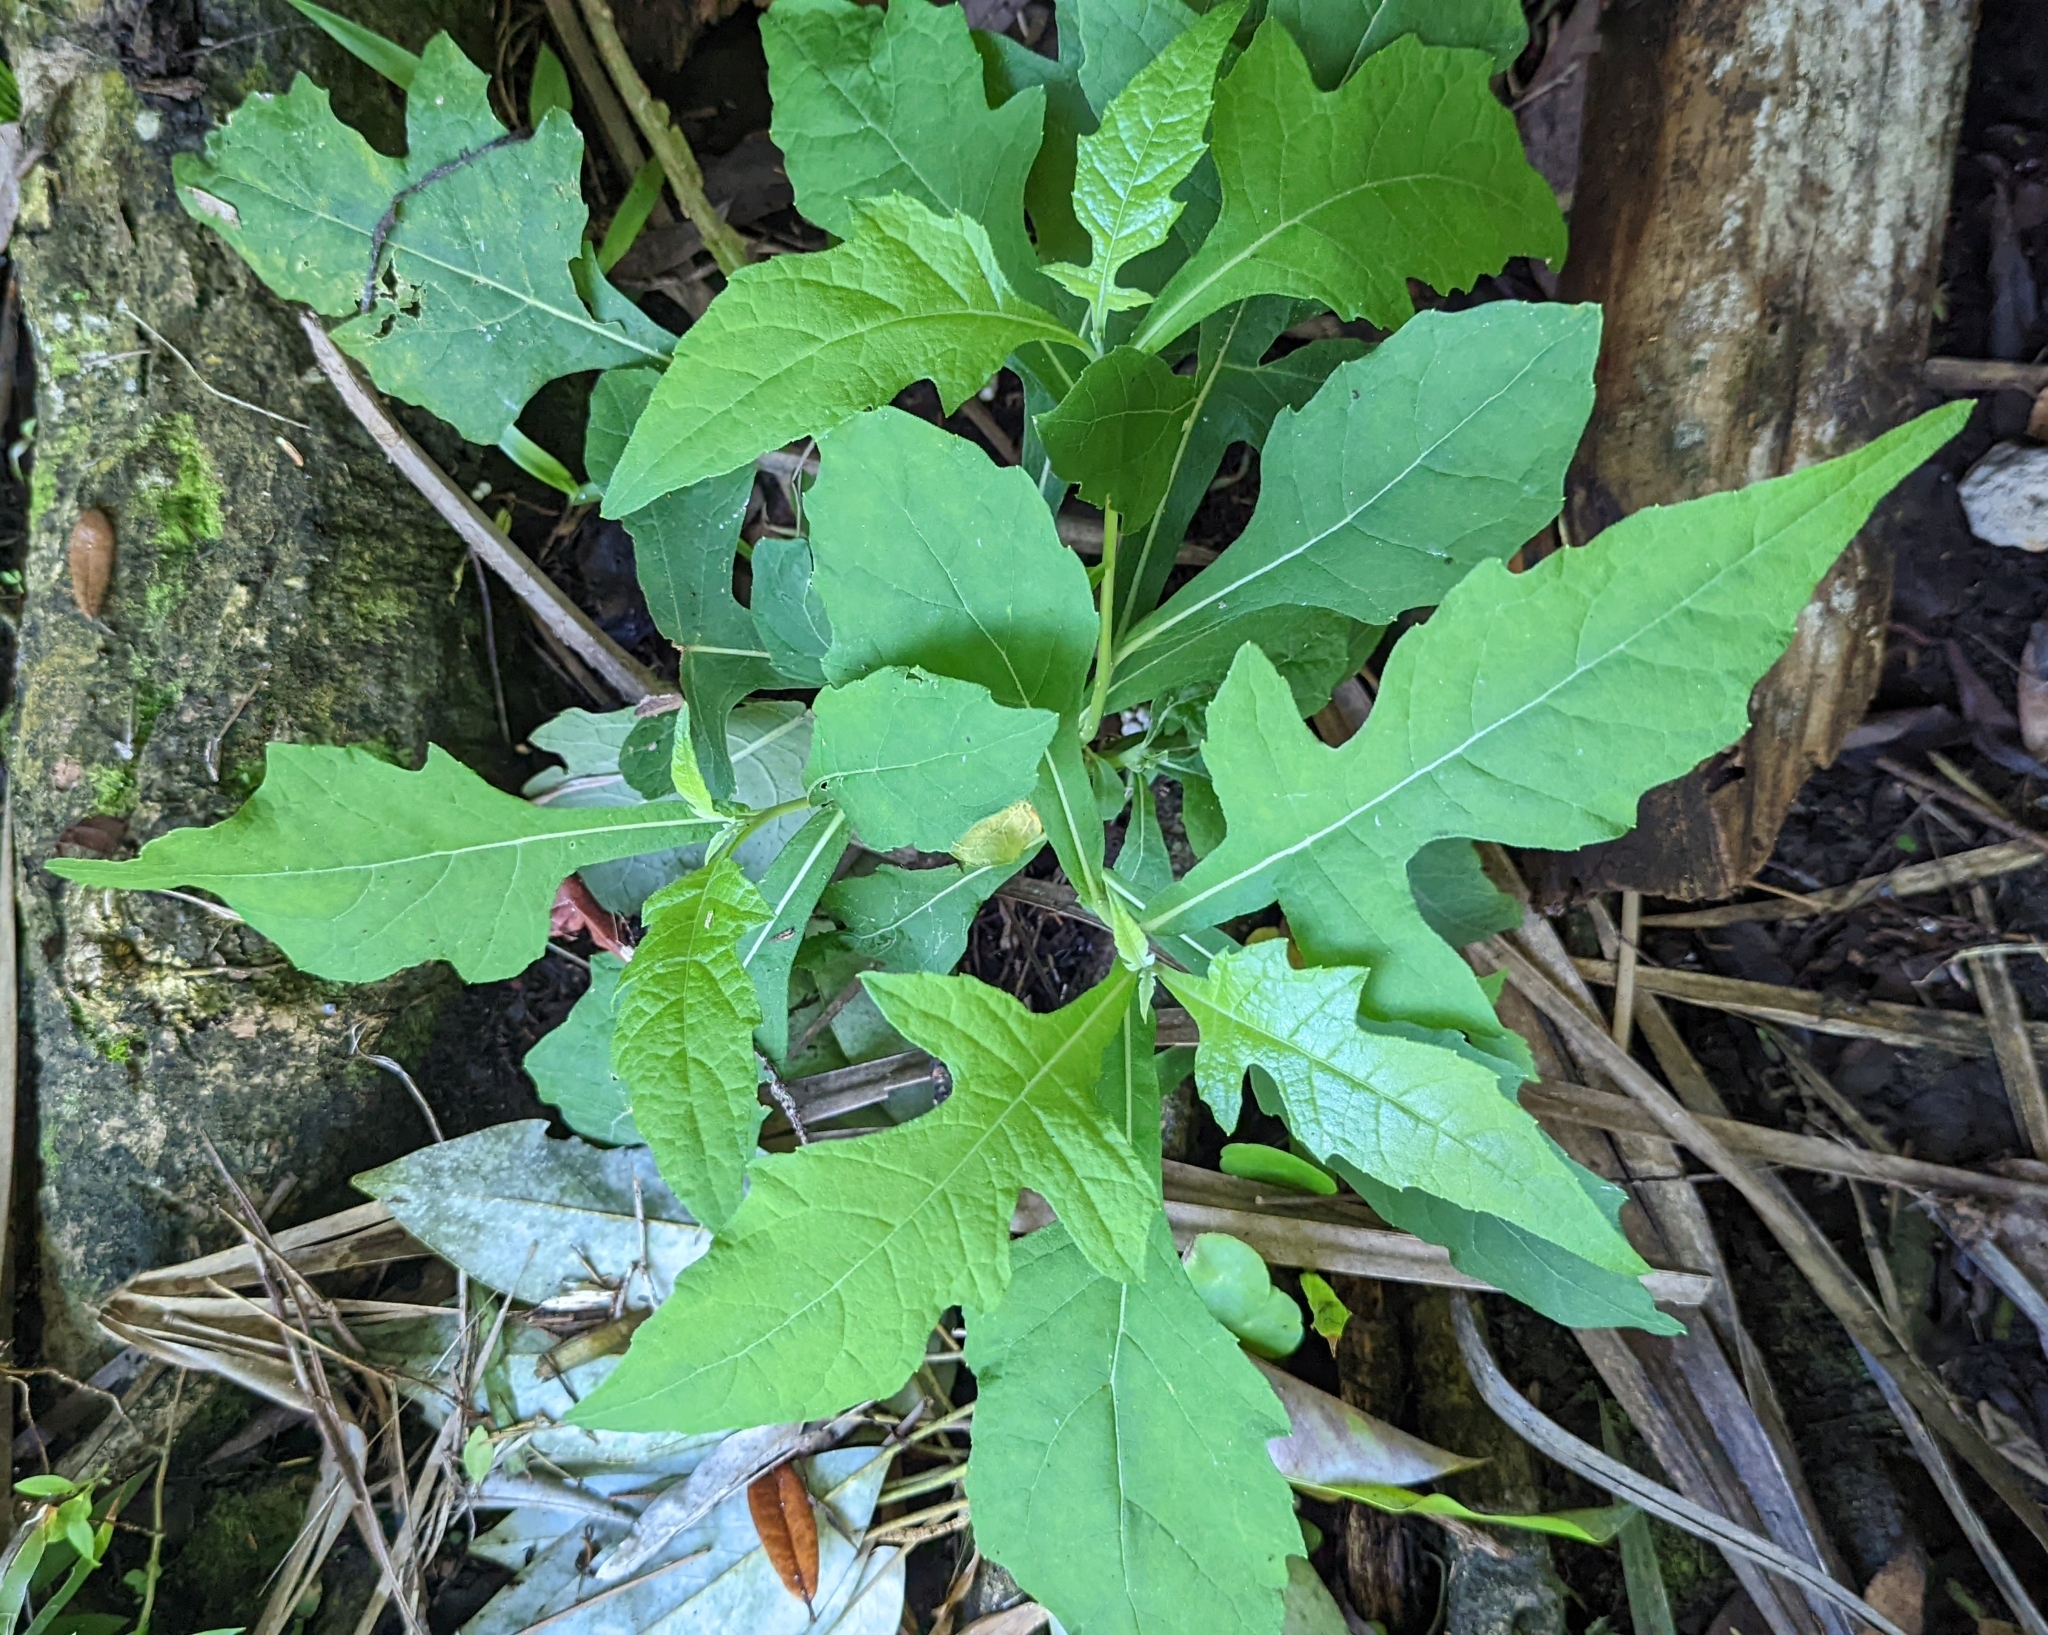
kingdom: Plantae
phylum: Tracheophyta
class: Magnoliopsida
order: Asterales
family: Asteraceae
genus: Verbesina
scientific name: Verbesina virginica
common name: Frostweed
